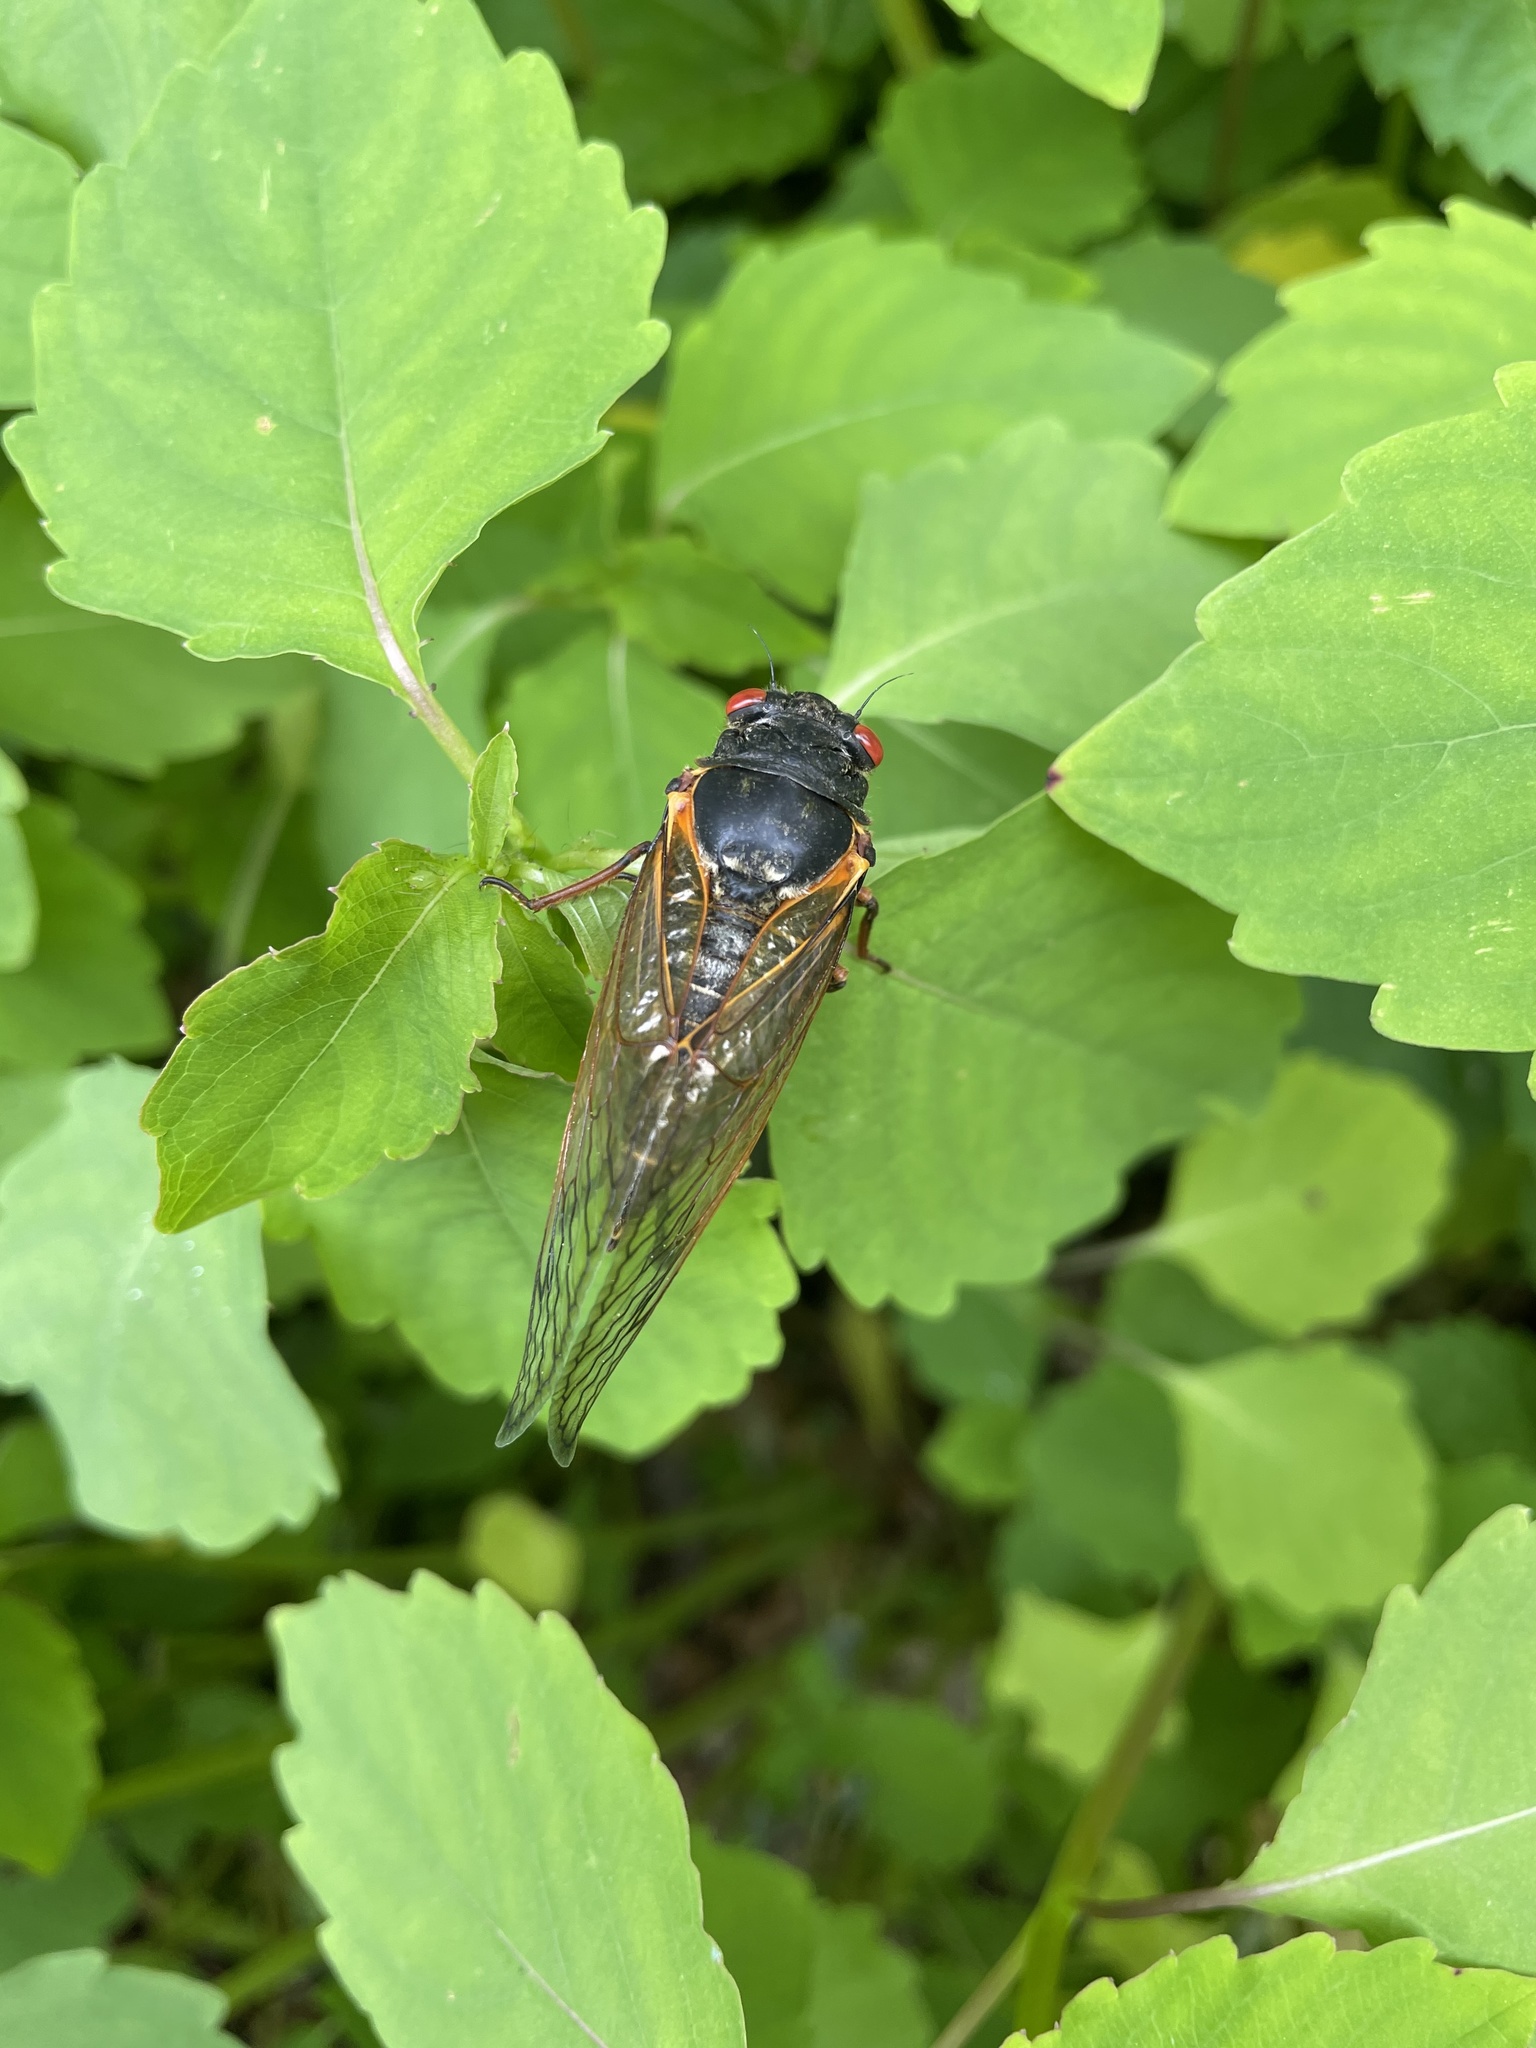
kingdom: Animalia
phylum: Arthropoda
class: Insecta
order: Hemiptera
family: Cicadidae
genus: Magicicada
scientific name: Magicicada
